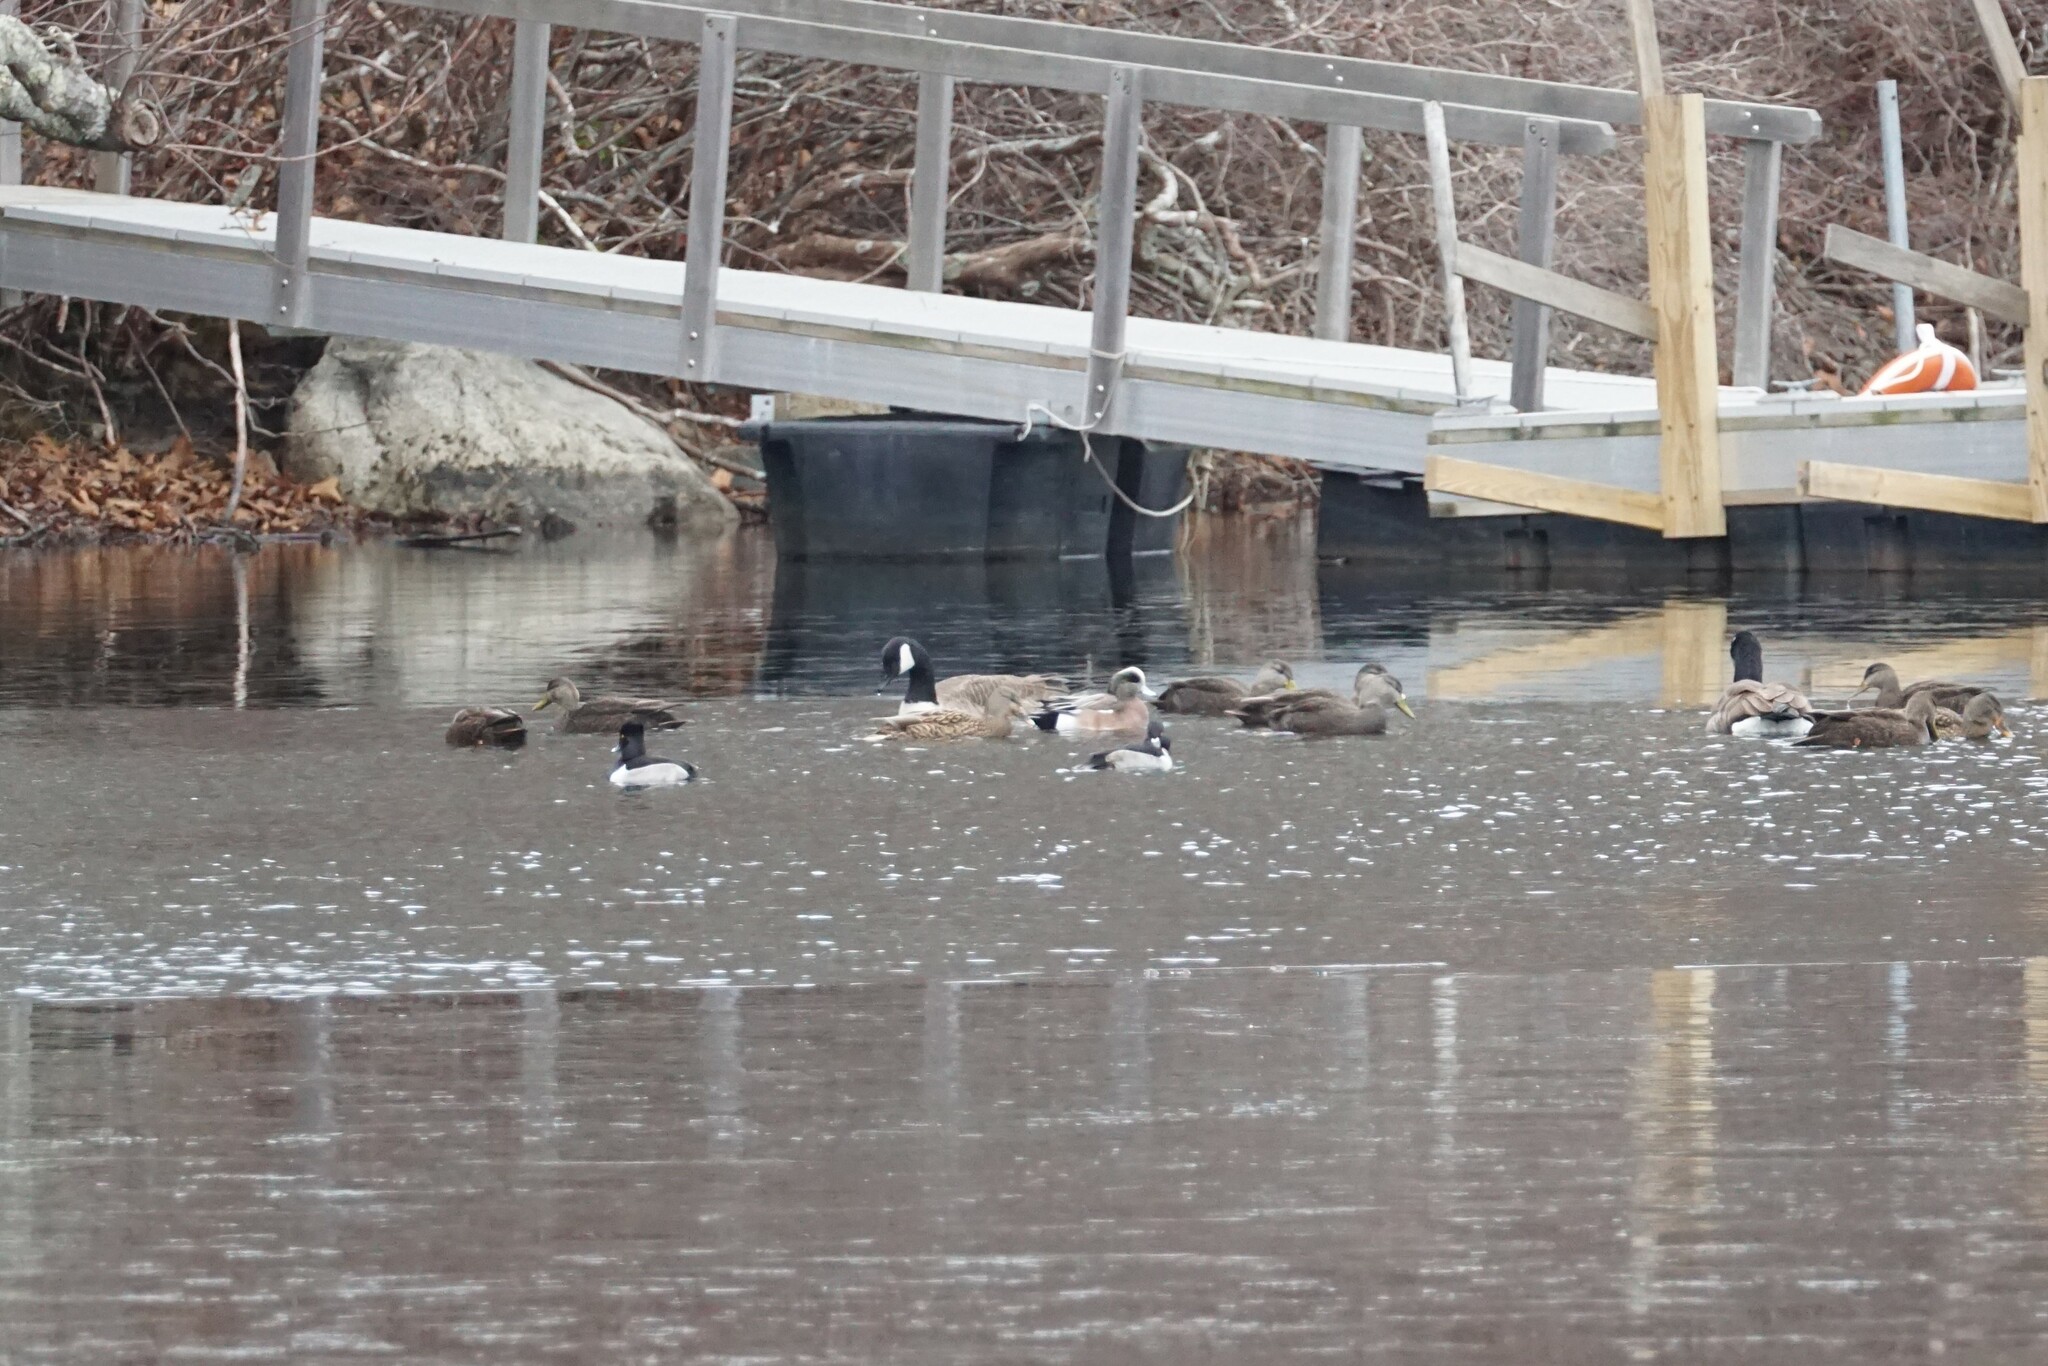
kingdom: Animalia
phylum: Chordata
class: Aves
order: Anseriformes
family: Anatidae
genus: Mareca
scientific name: Mareca americana
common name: American wigeon
